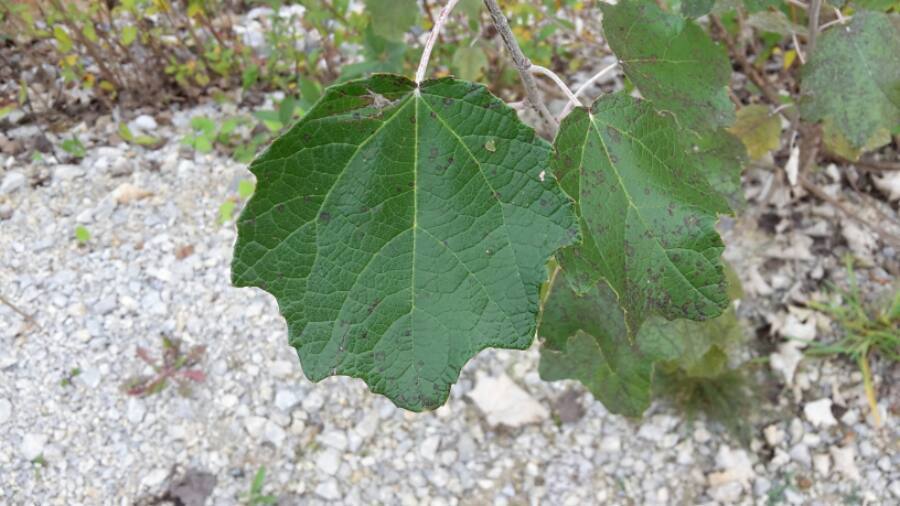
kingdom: Plantae
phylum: Tracheophyta
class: Magnoliopsida
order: Malpighiales
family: Salicaceae
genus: Populus
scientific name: Populus alba
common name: White poplar
